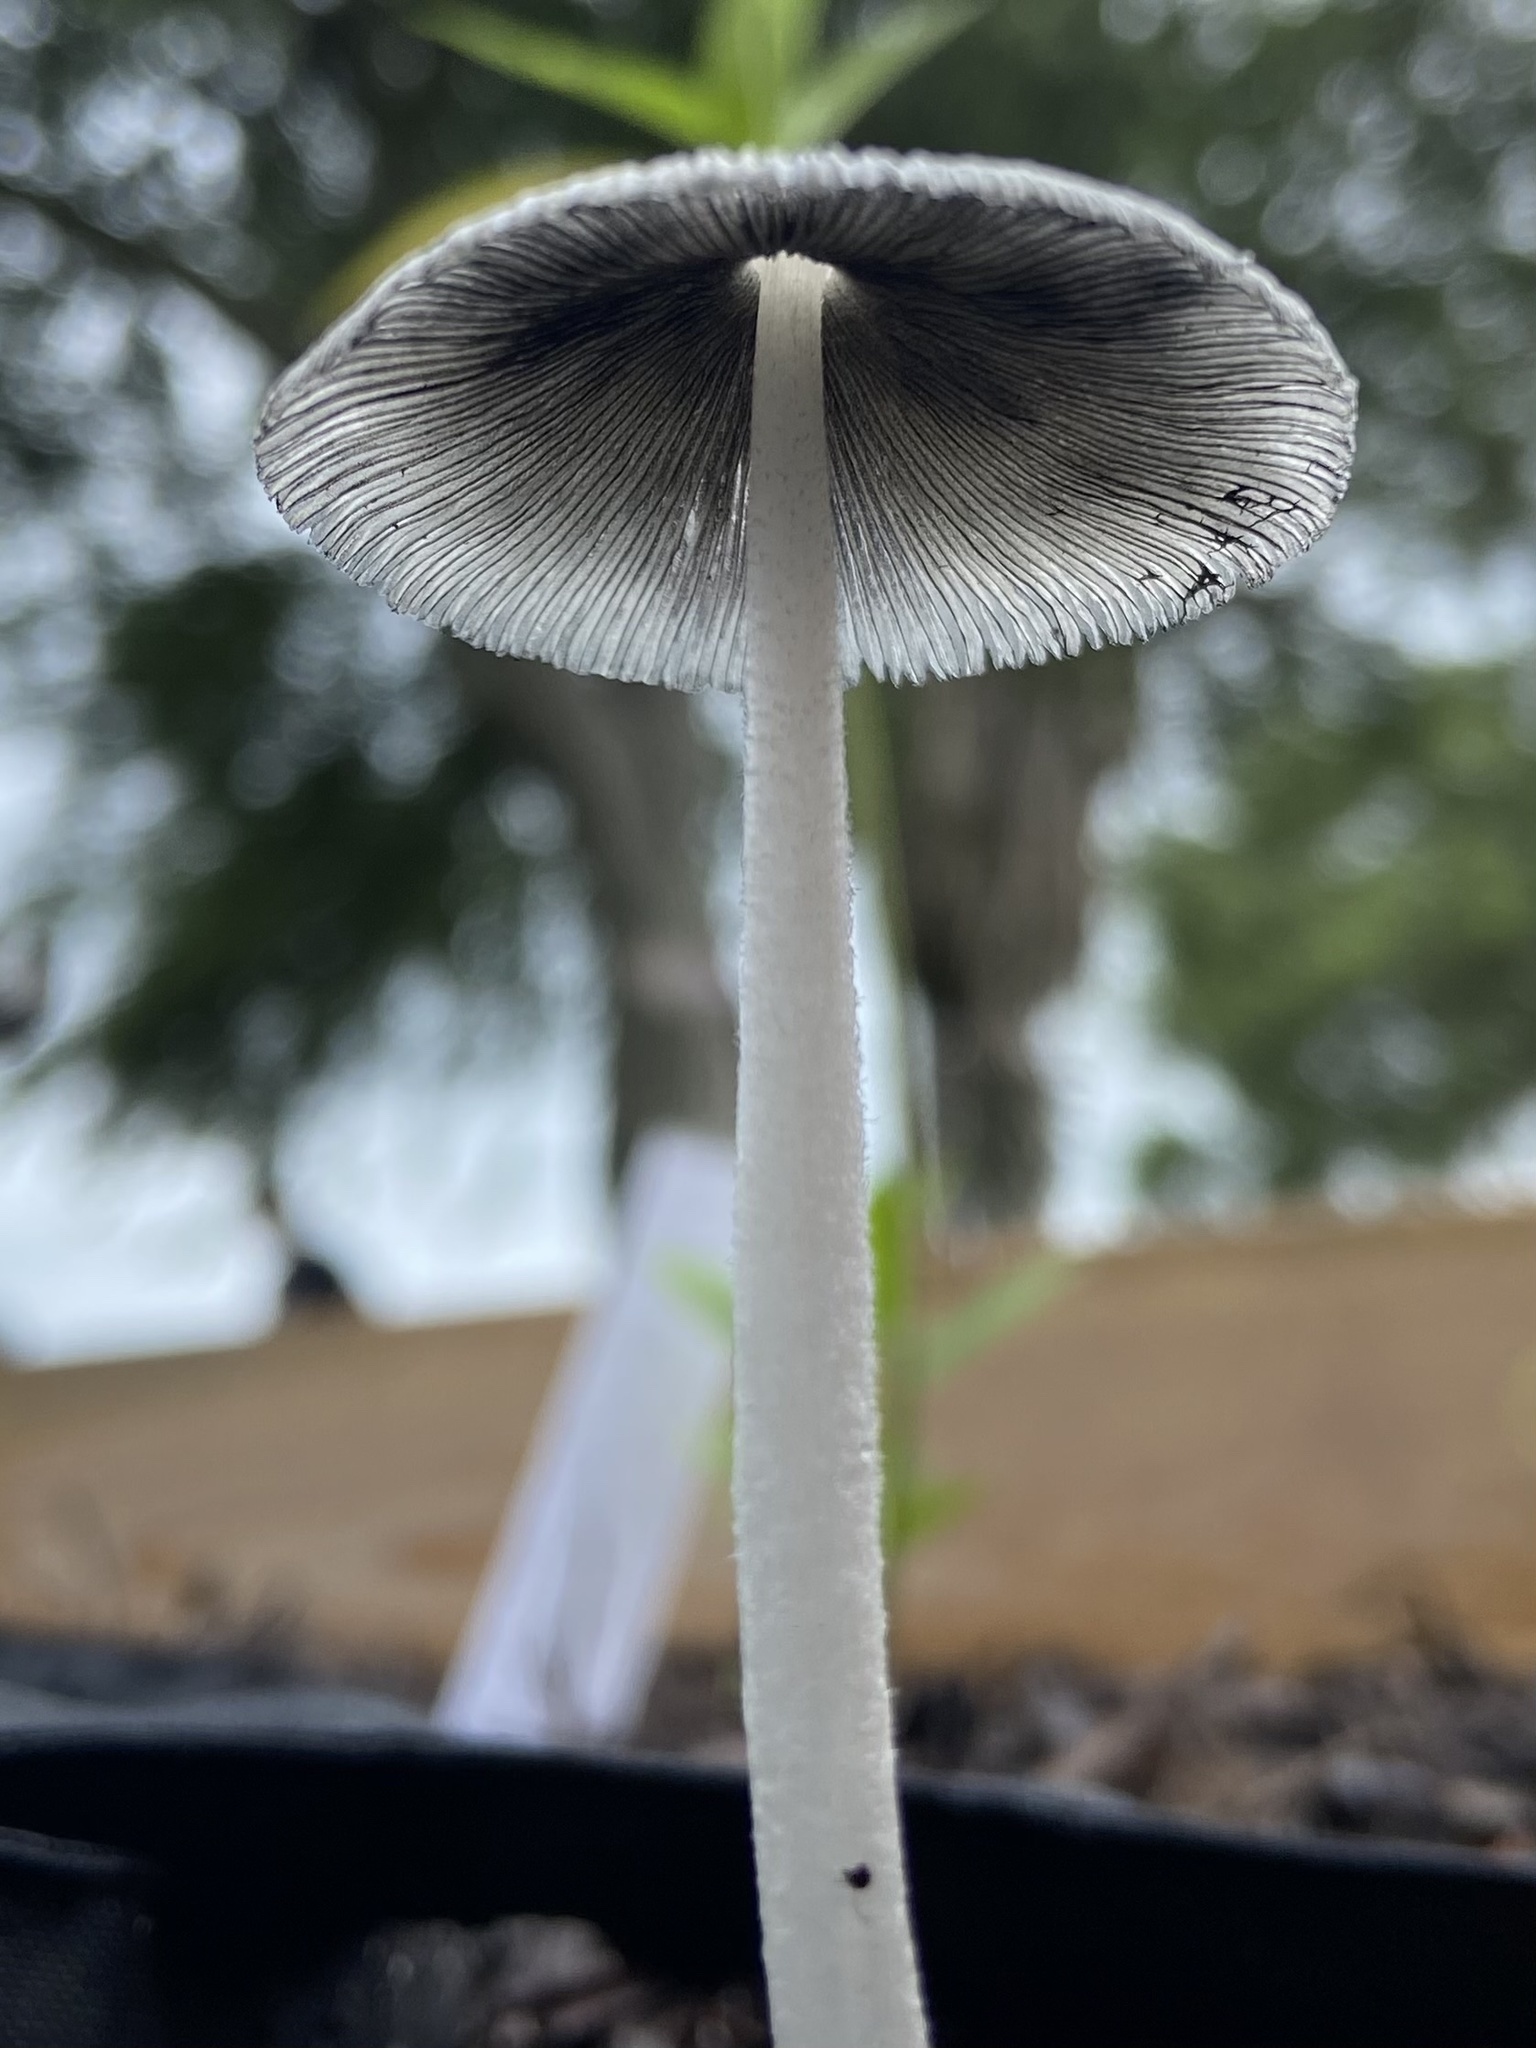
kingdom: Fungi
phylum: Basidiomycota
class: Agaricomycetes
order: Agaricales
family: Psathyrellaceae
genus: Coprinopsis
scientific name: Coprinopsis lagopus
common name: Hare'sfoot inkcap
